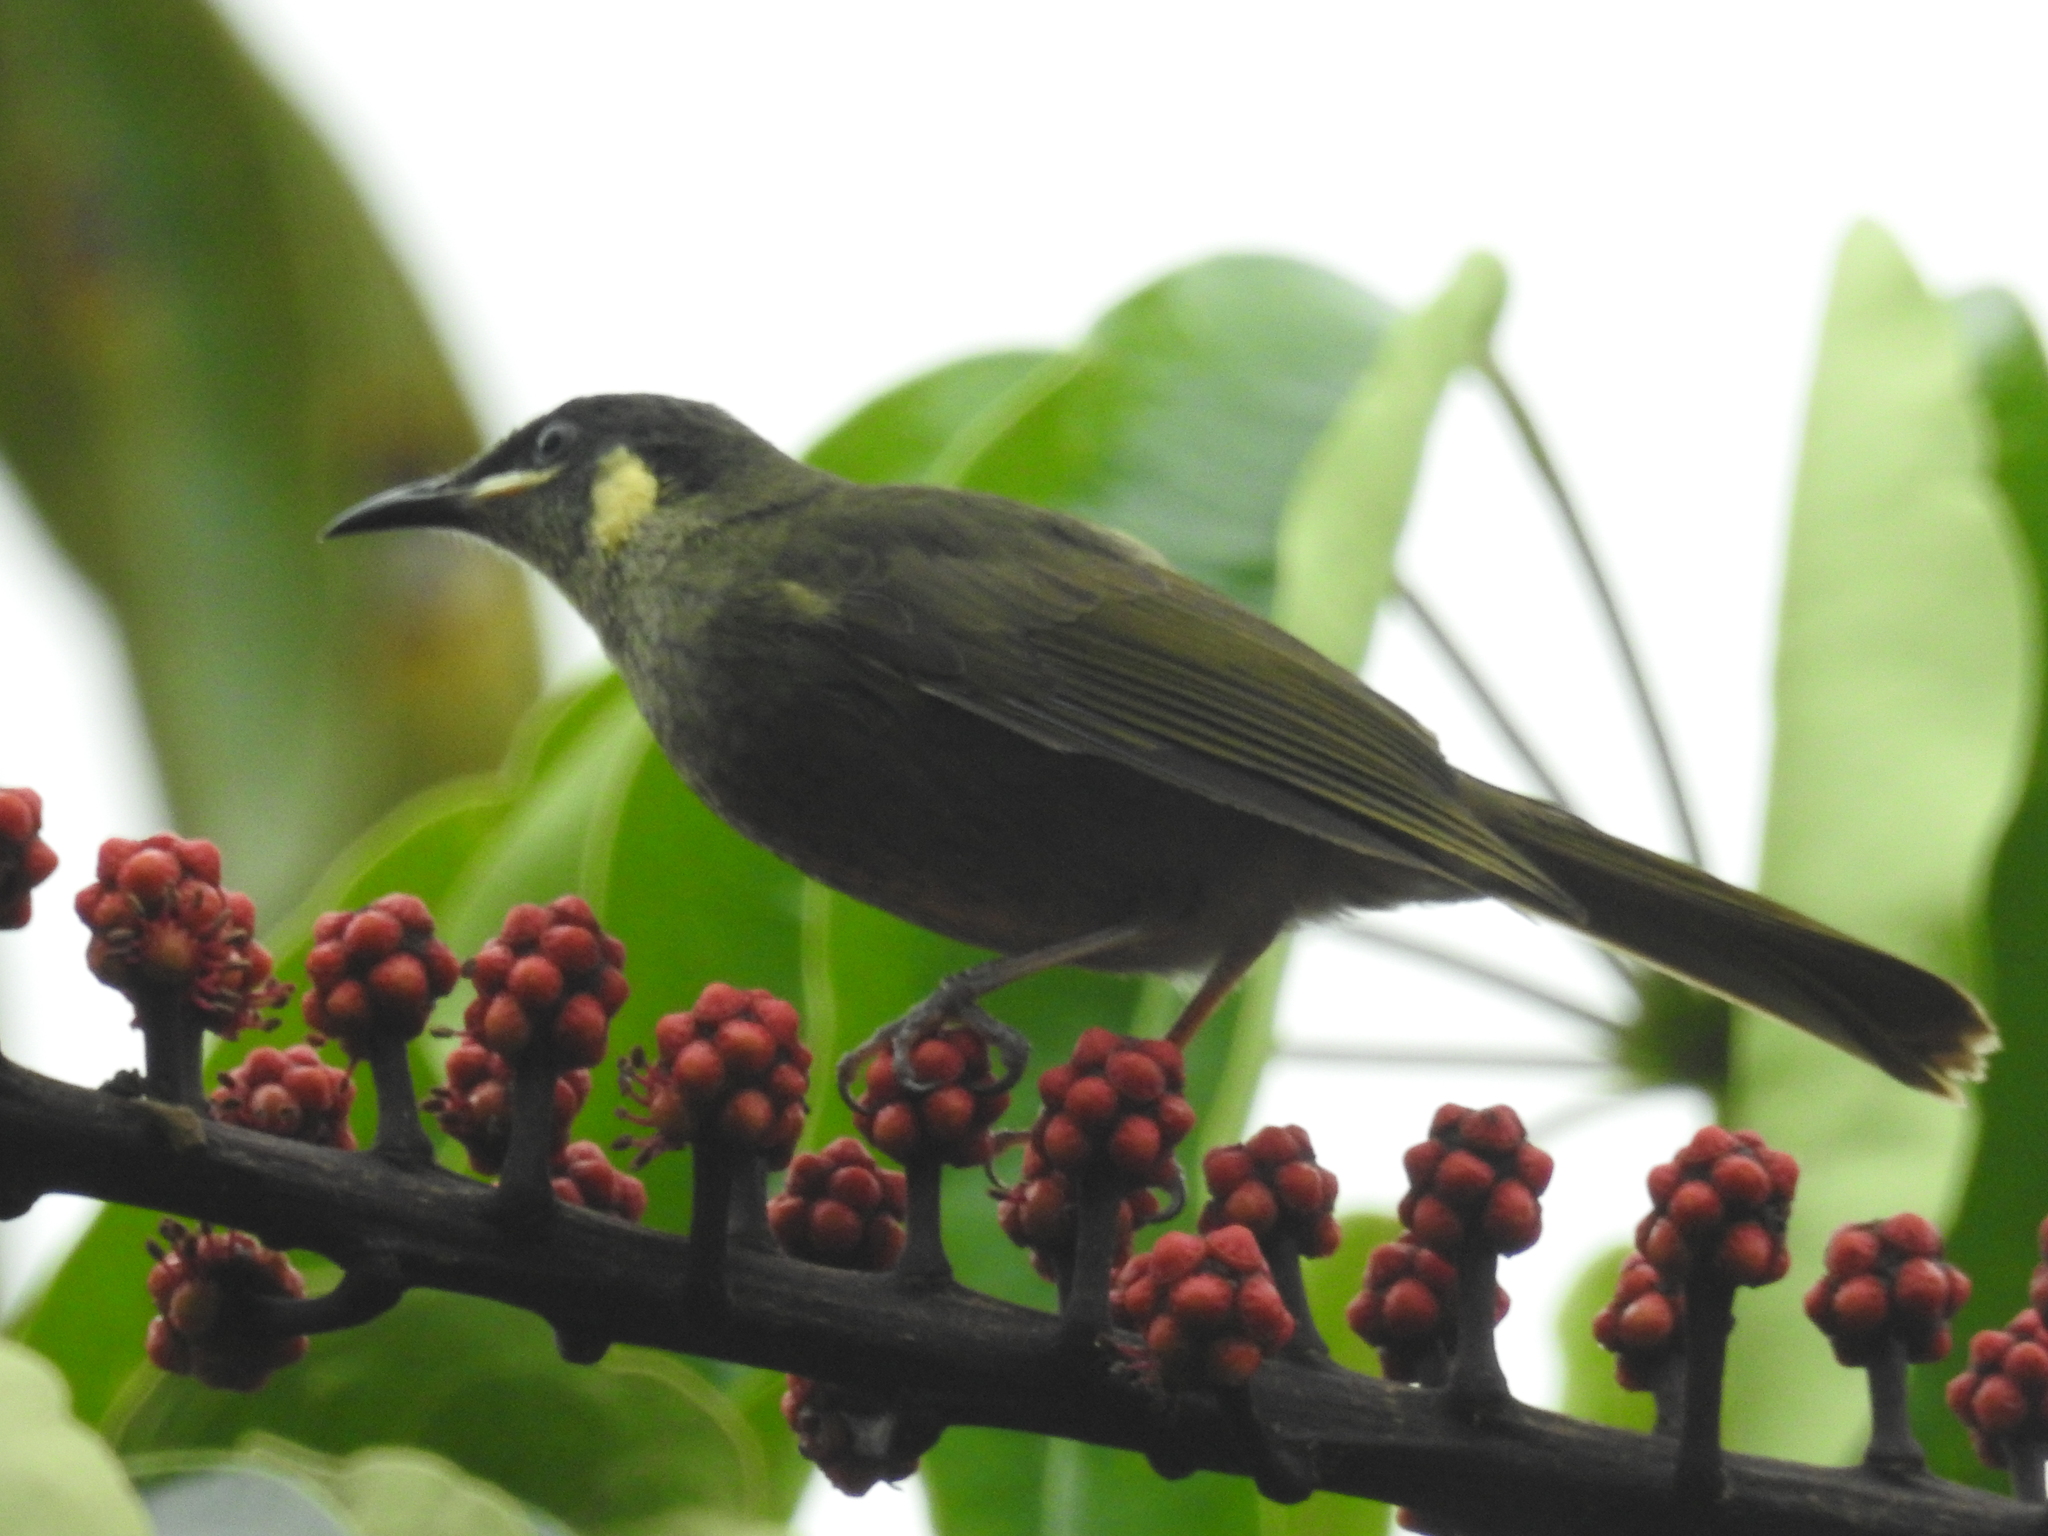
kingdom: Animalia
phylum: Chordata
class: Aves
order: Passeriformes
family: Meliphagidae
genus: Meliphaga
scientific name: Meliphaga lewinii
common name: Lewin's honeyeater
